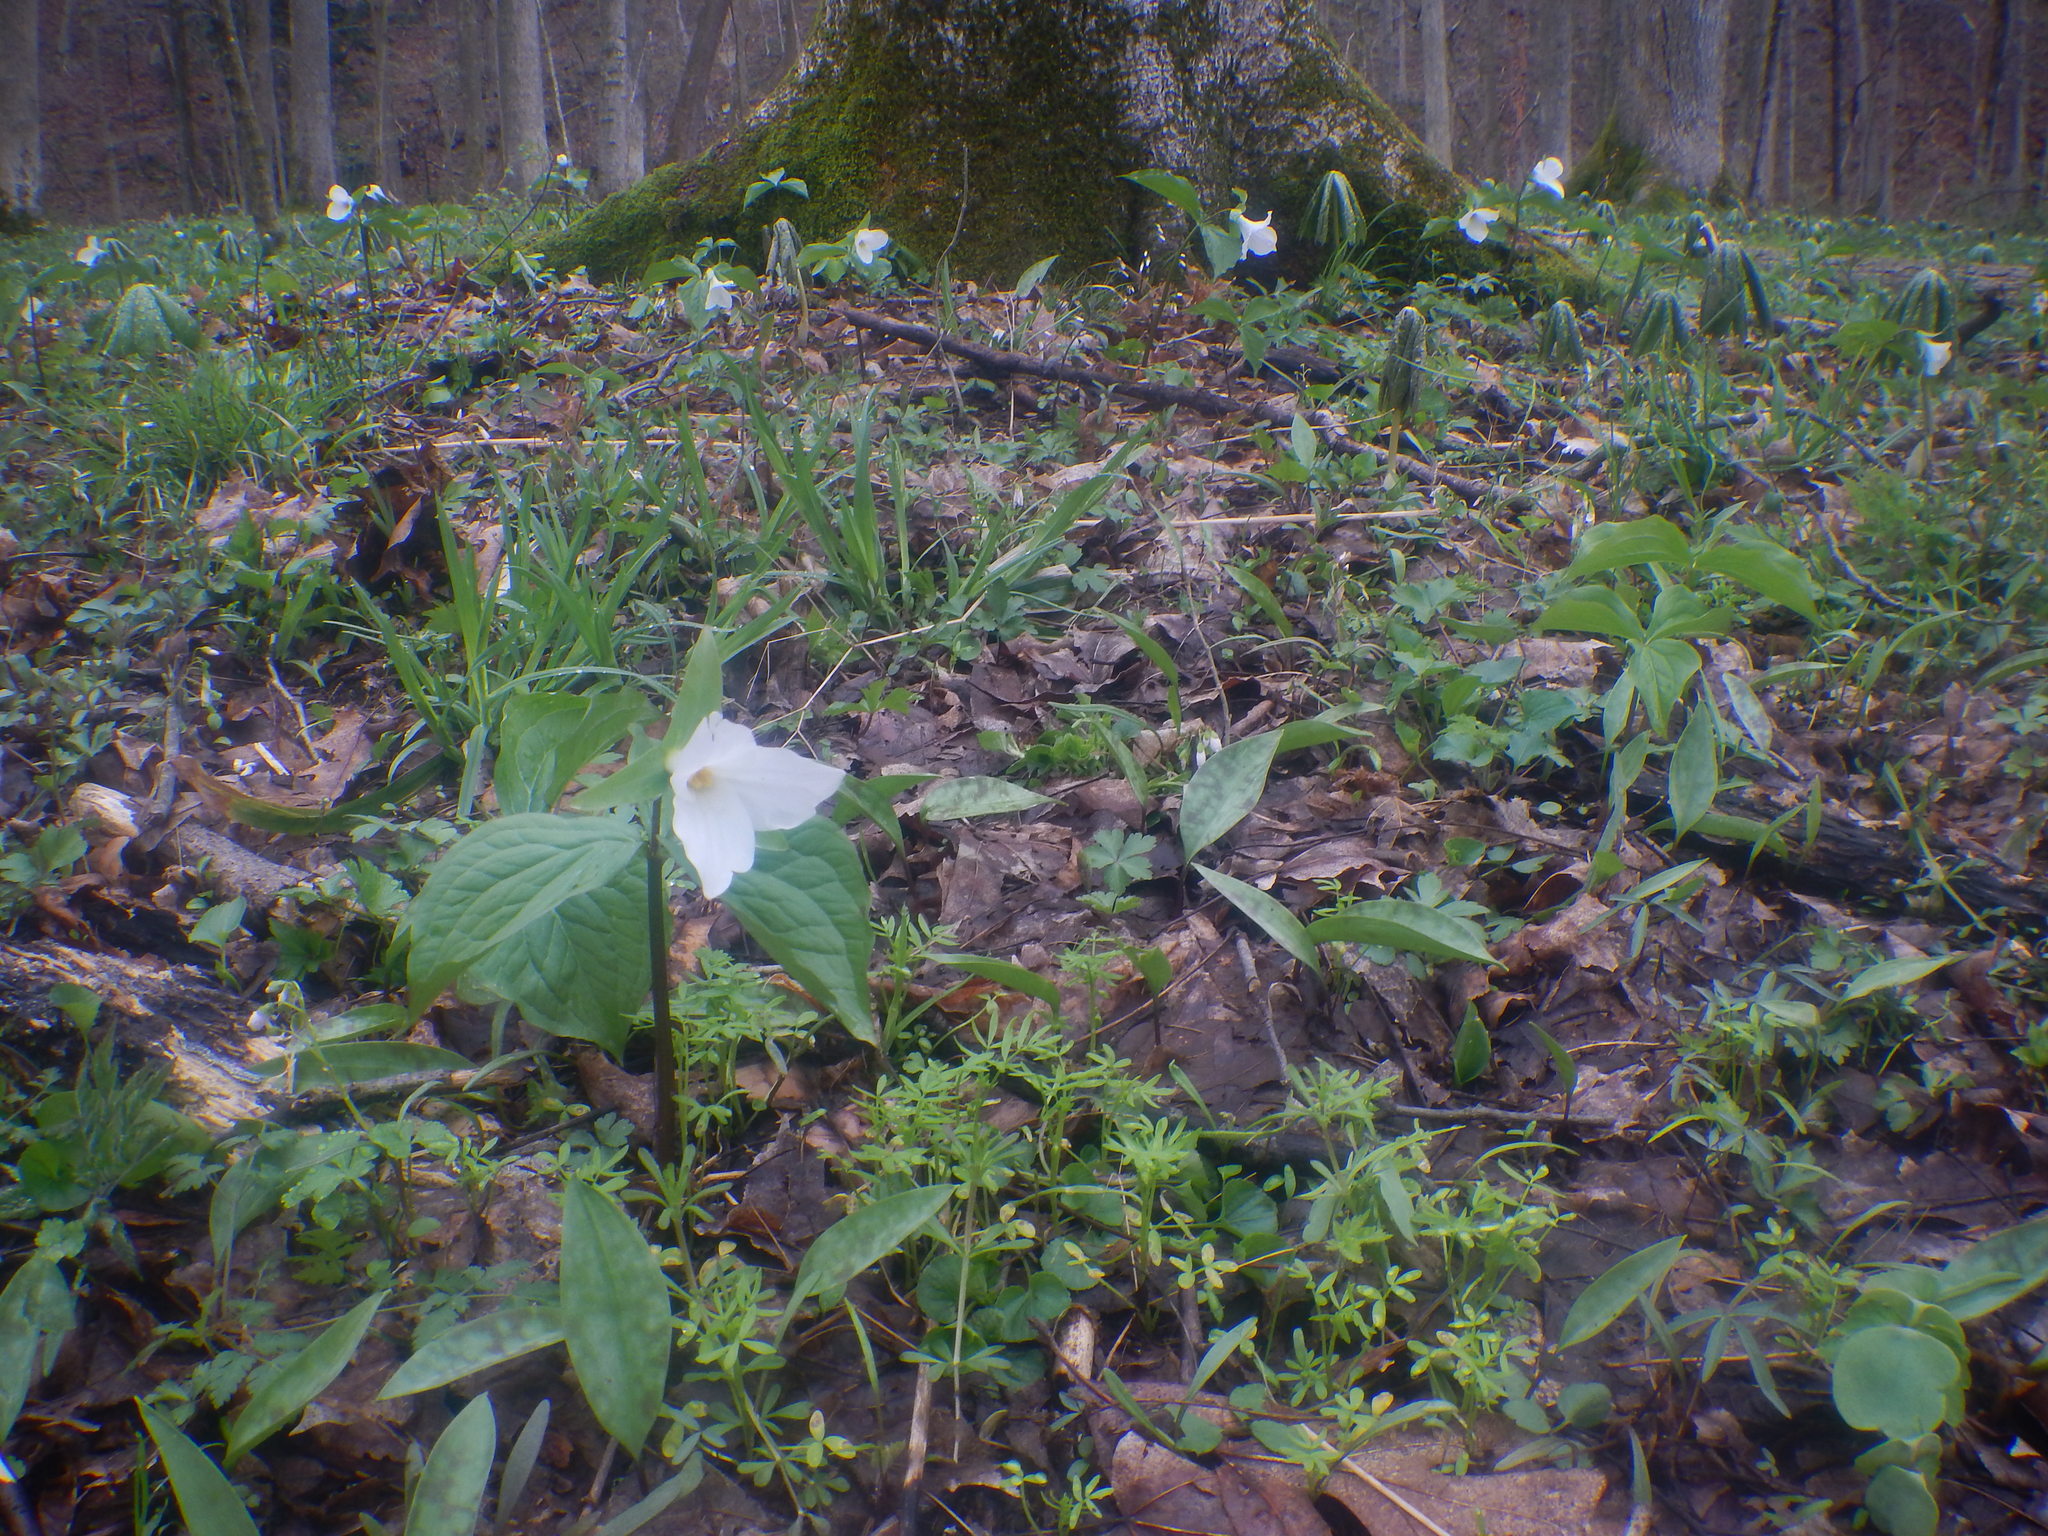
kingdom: Plantae
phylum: Tracheophyta
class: Liliopsida
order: Liliales
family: Melanthiaceae
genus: Trillium
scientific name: Trillium grandiflorum
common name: Great white trillium
